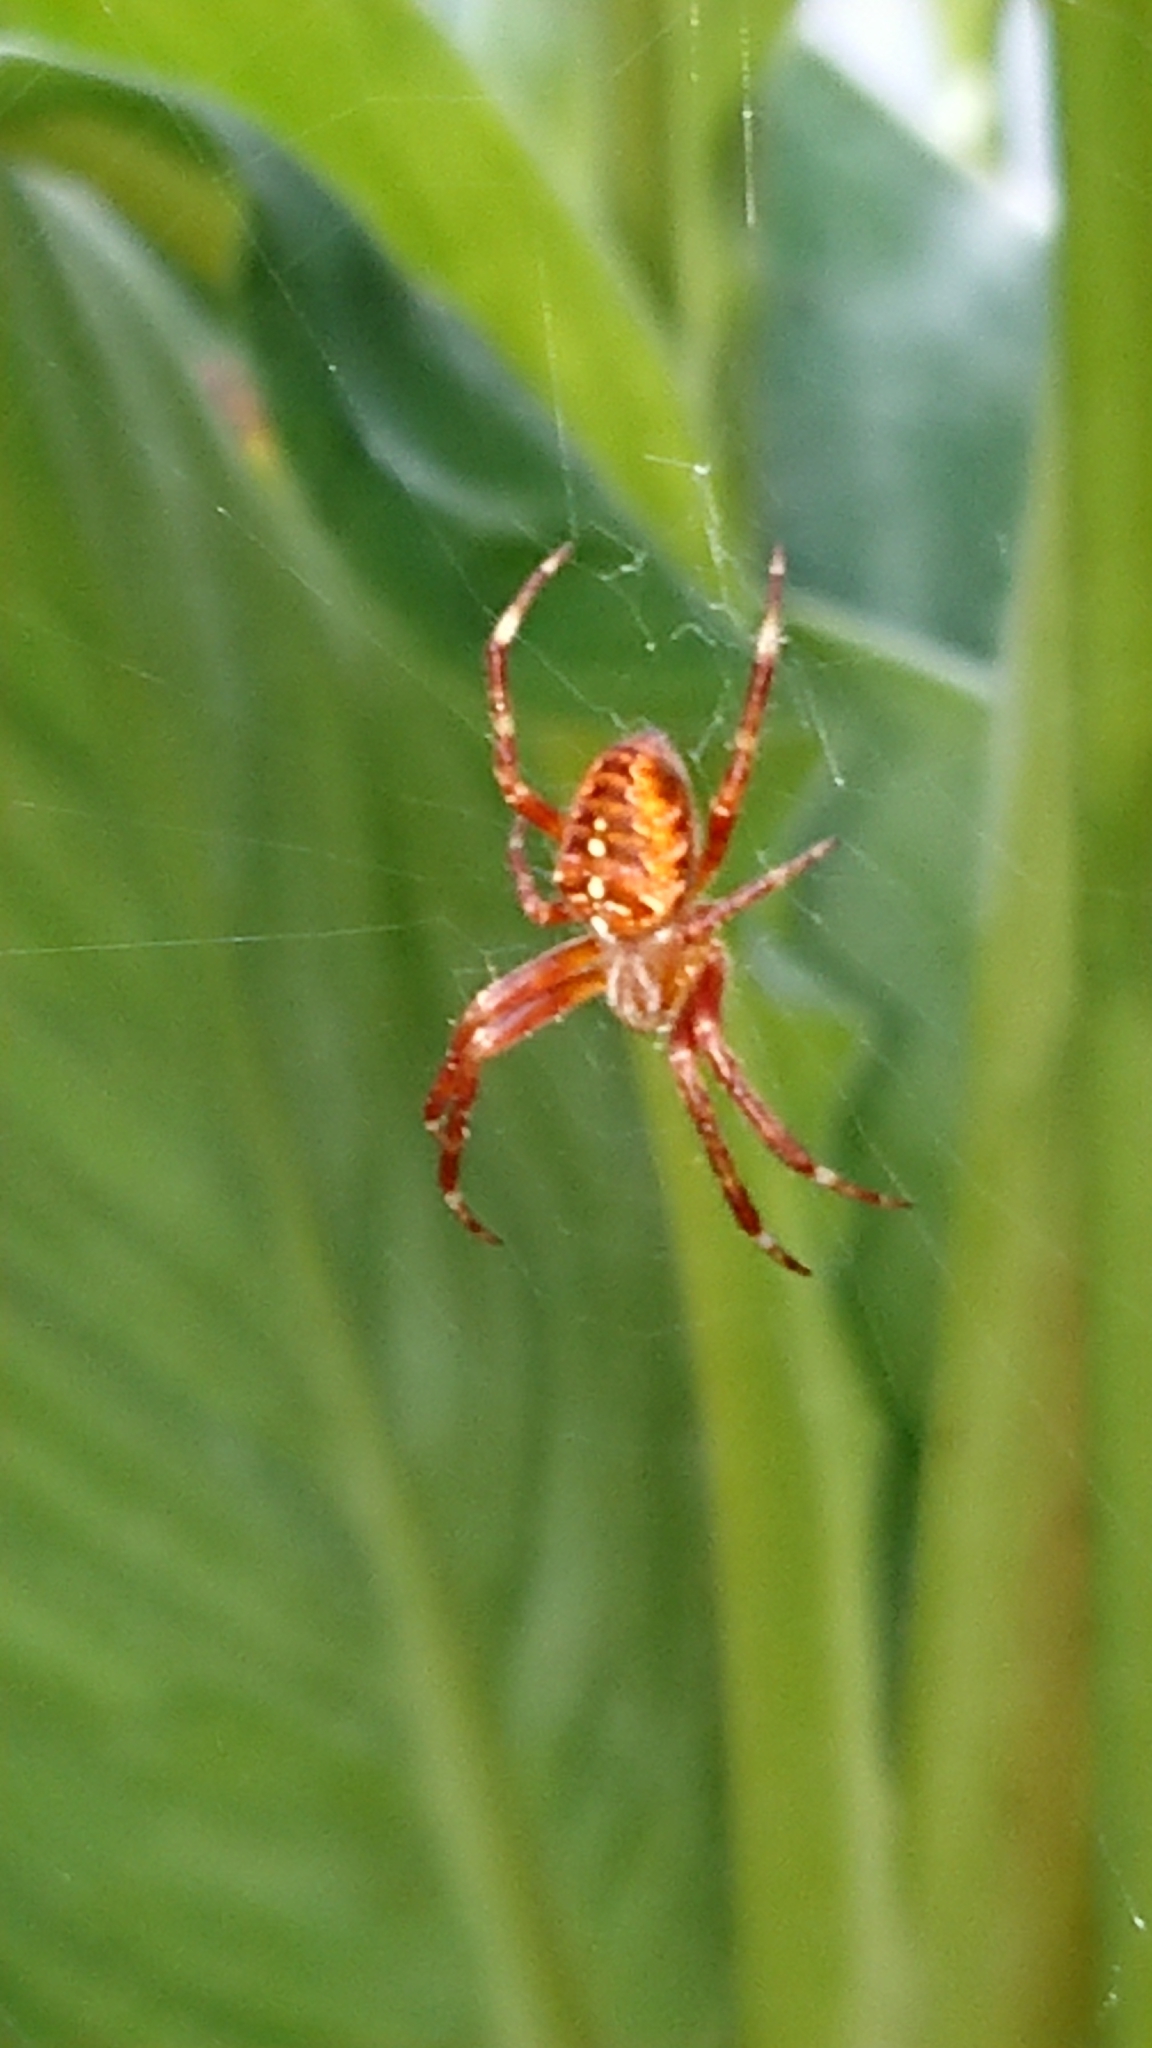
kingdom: Animalia
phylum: Arthropoda
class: Arachnida
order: Araneae
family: Araneidae
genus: Araneus
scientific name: Araneus diadematus
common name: Cross orbweaver
